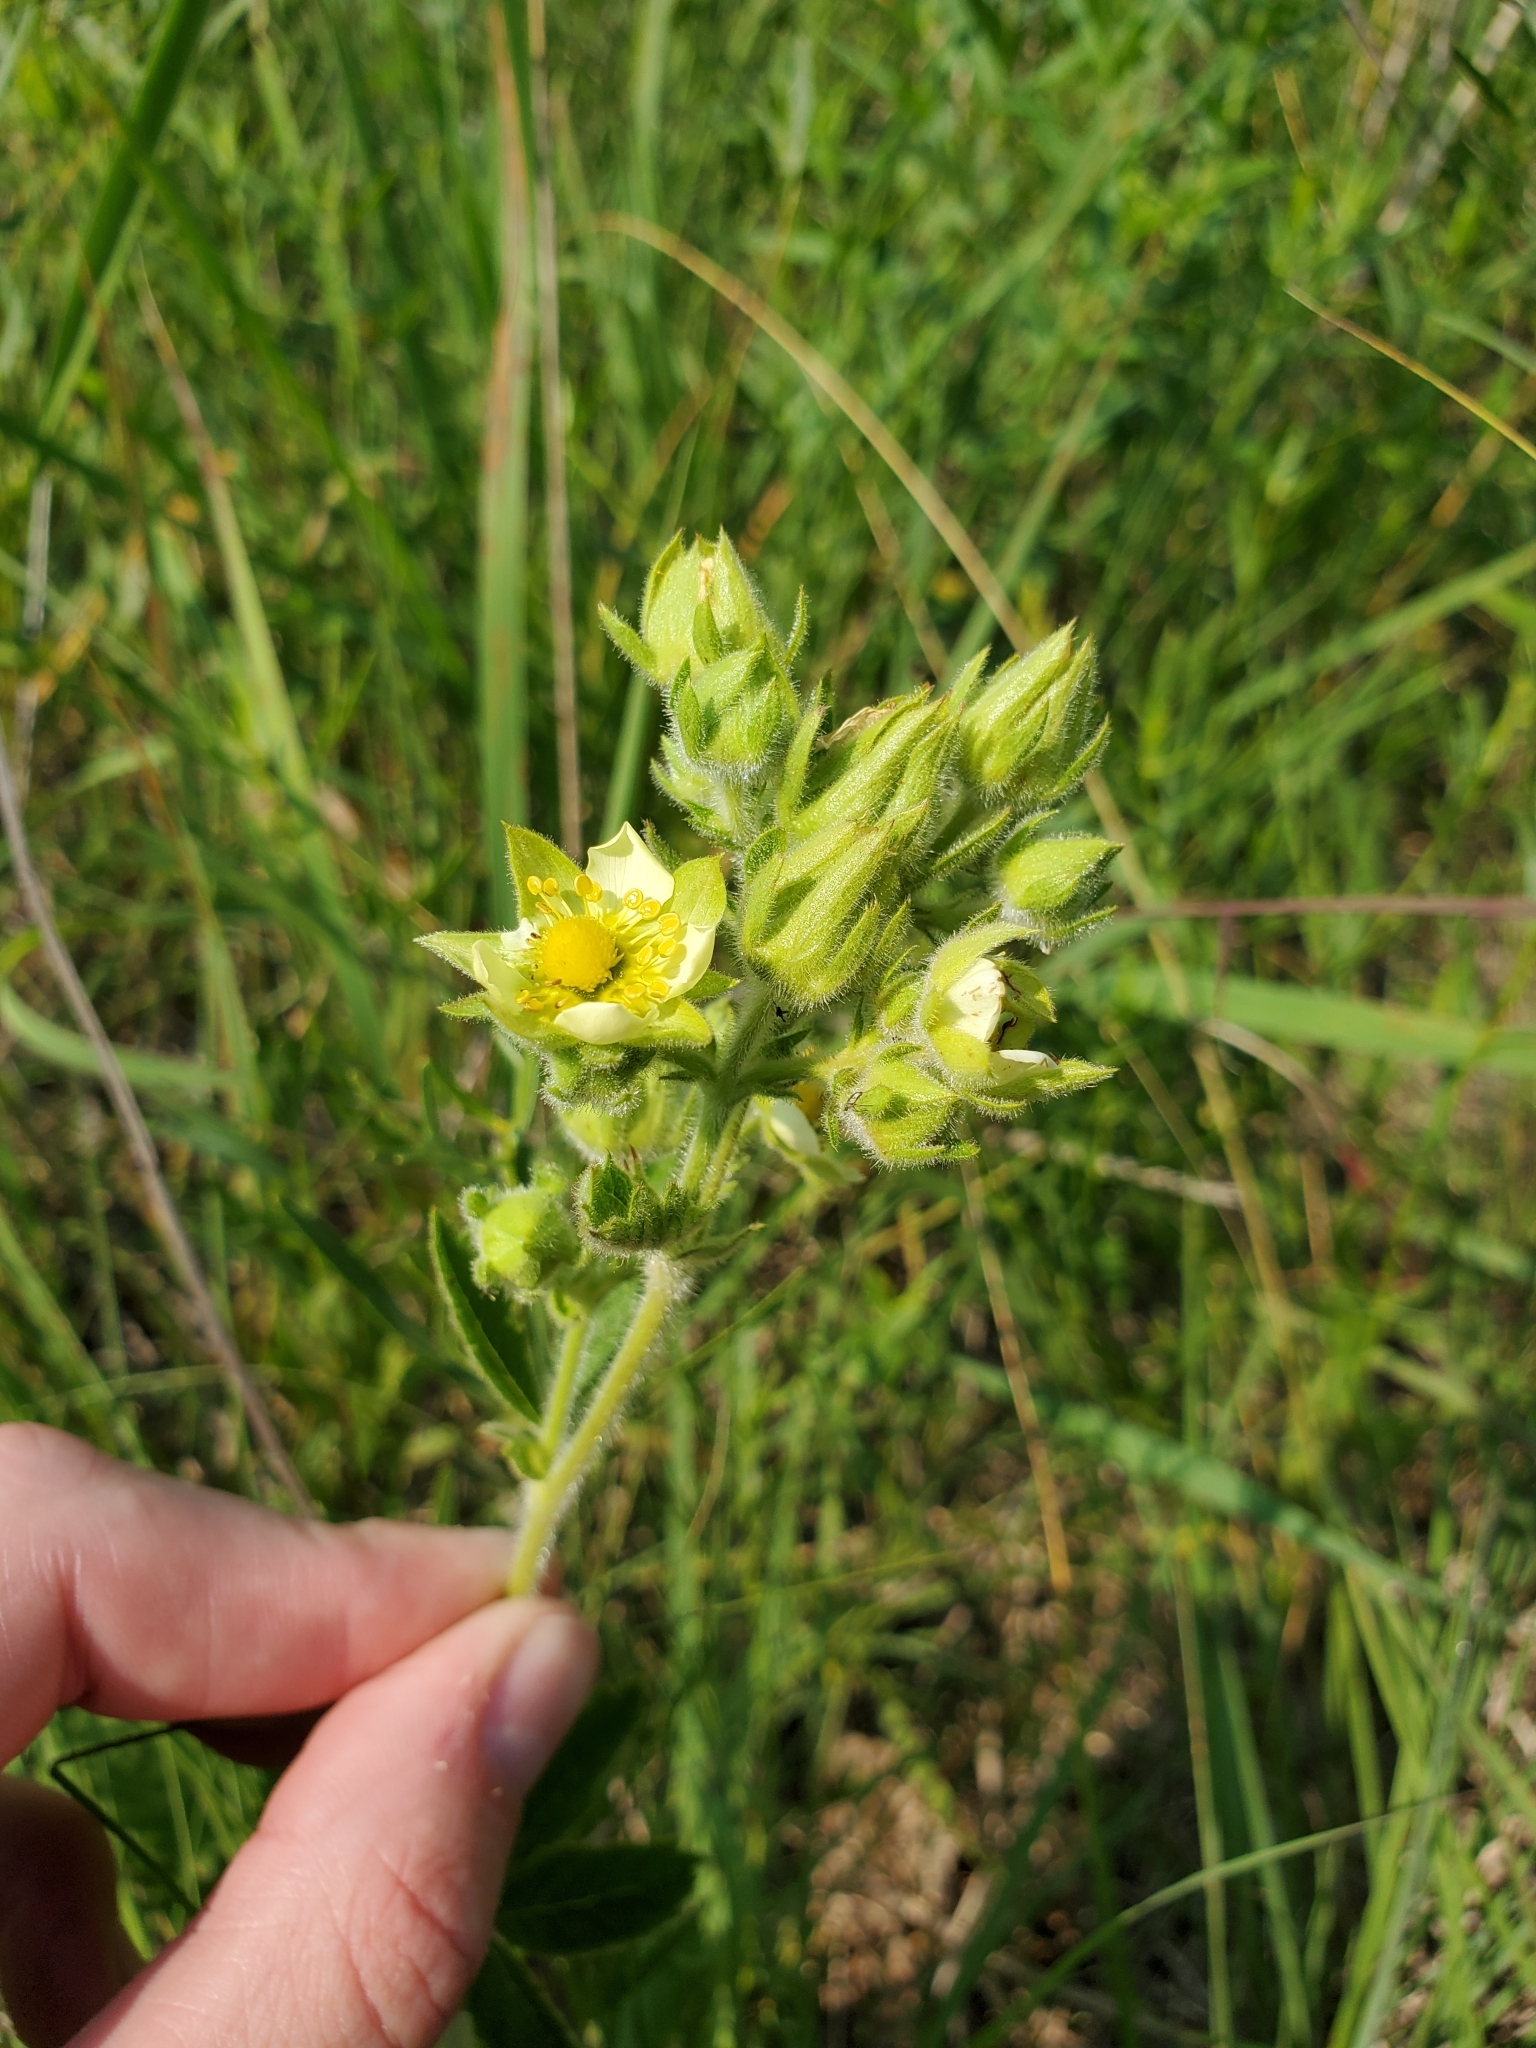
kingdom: Plantae
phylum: Tracheophyta
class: Magnoliopsida
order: Rosales
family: Rosaceae
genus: Drymocallis
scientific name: Drymocallis arguta
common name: Tall cinquefoil
